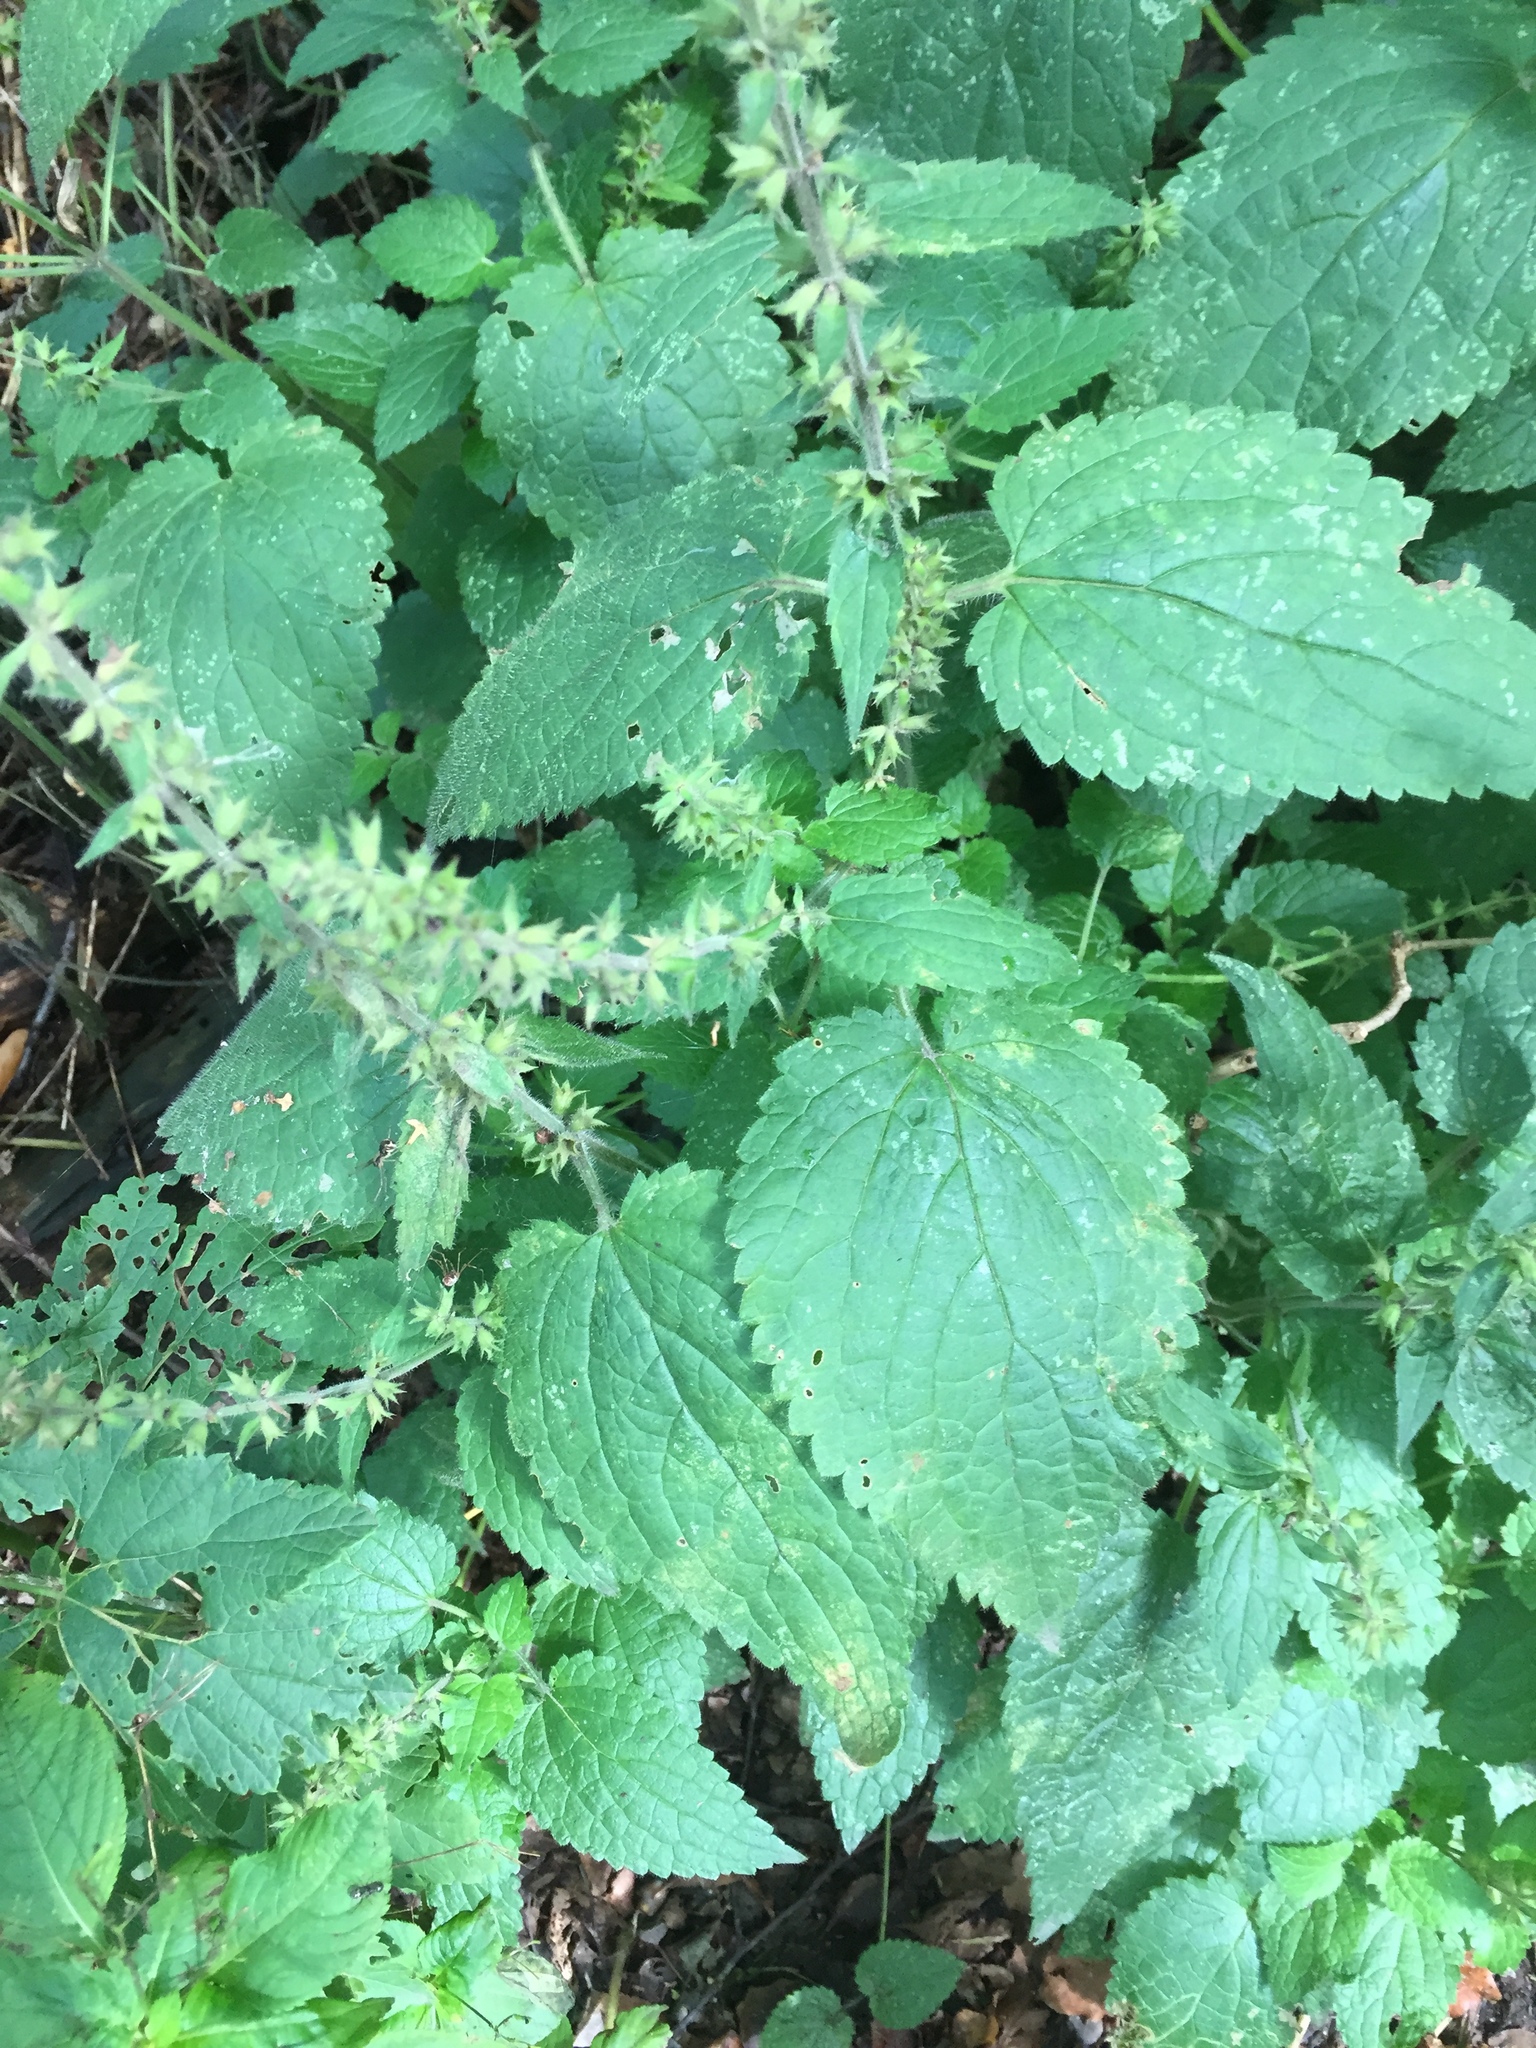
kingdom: Plantae
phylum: Tracheophyta
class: Magnoliopsida
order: Lamiales
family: Lamiaceae
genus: Stachys
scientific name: Stachys sylvatica
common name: Hedge woundwort
